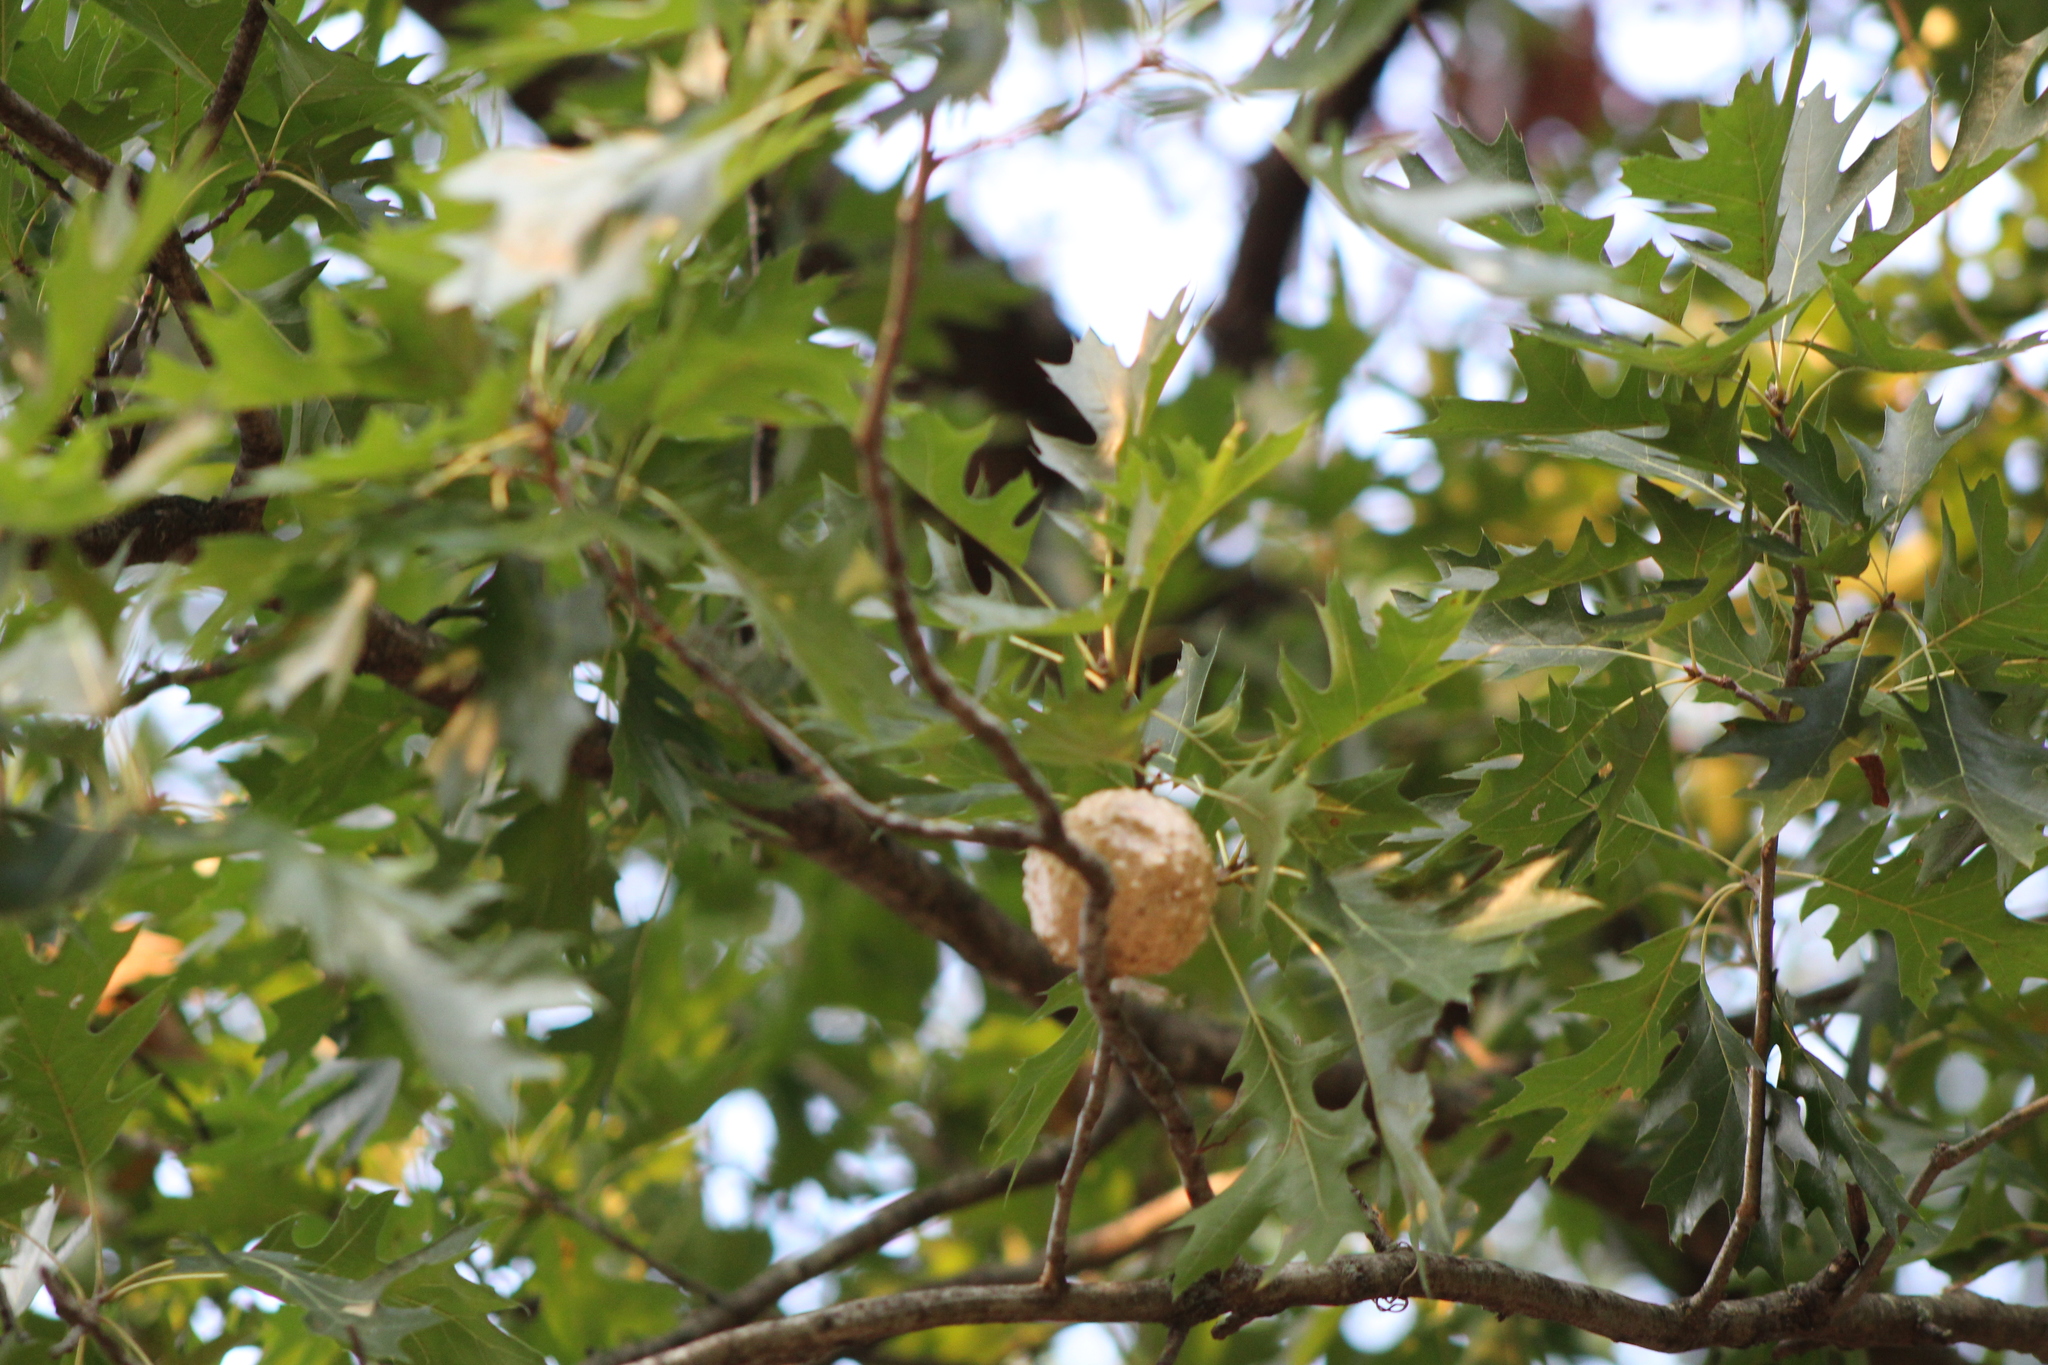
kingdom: Animalia
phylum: Arthropoda
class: Insecta
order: Hymenoptera
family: Cynipidae
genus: Amphibolips
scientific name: Amphibolips
